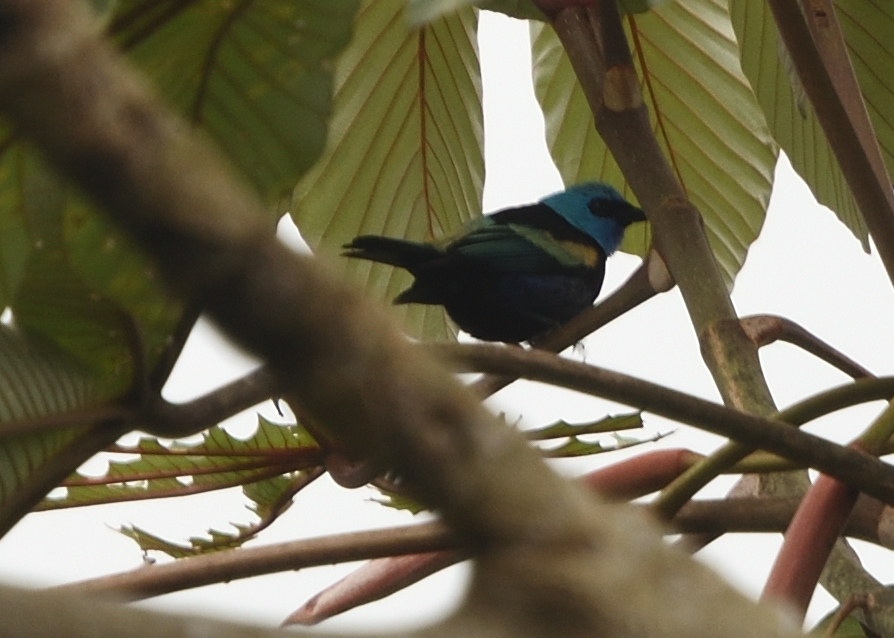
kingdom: Animalia
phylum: Chordata
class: Aves
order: Passeriformes
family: Thraupidae
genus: Stilpnia
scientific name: Stilpnia cyanicollis
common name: Blue-necked tanager
